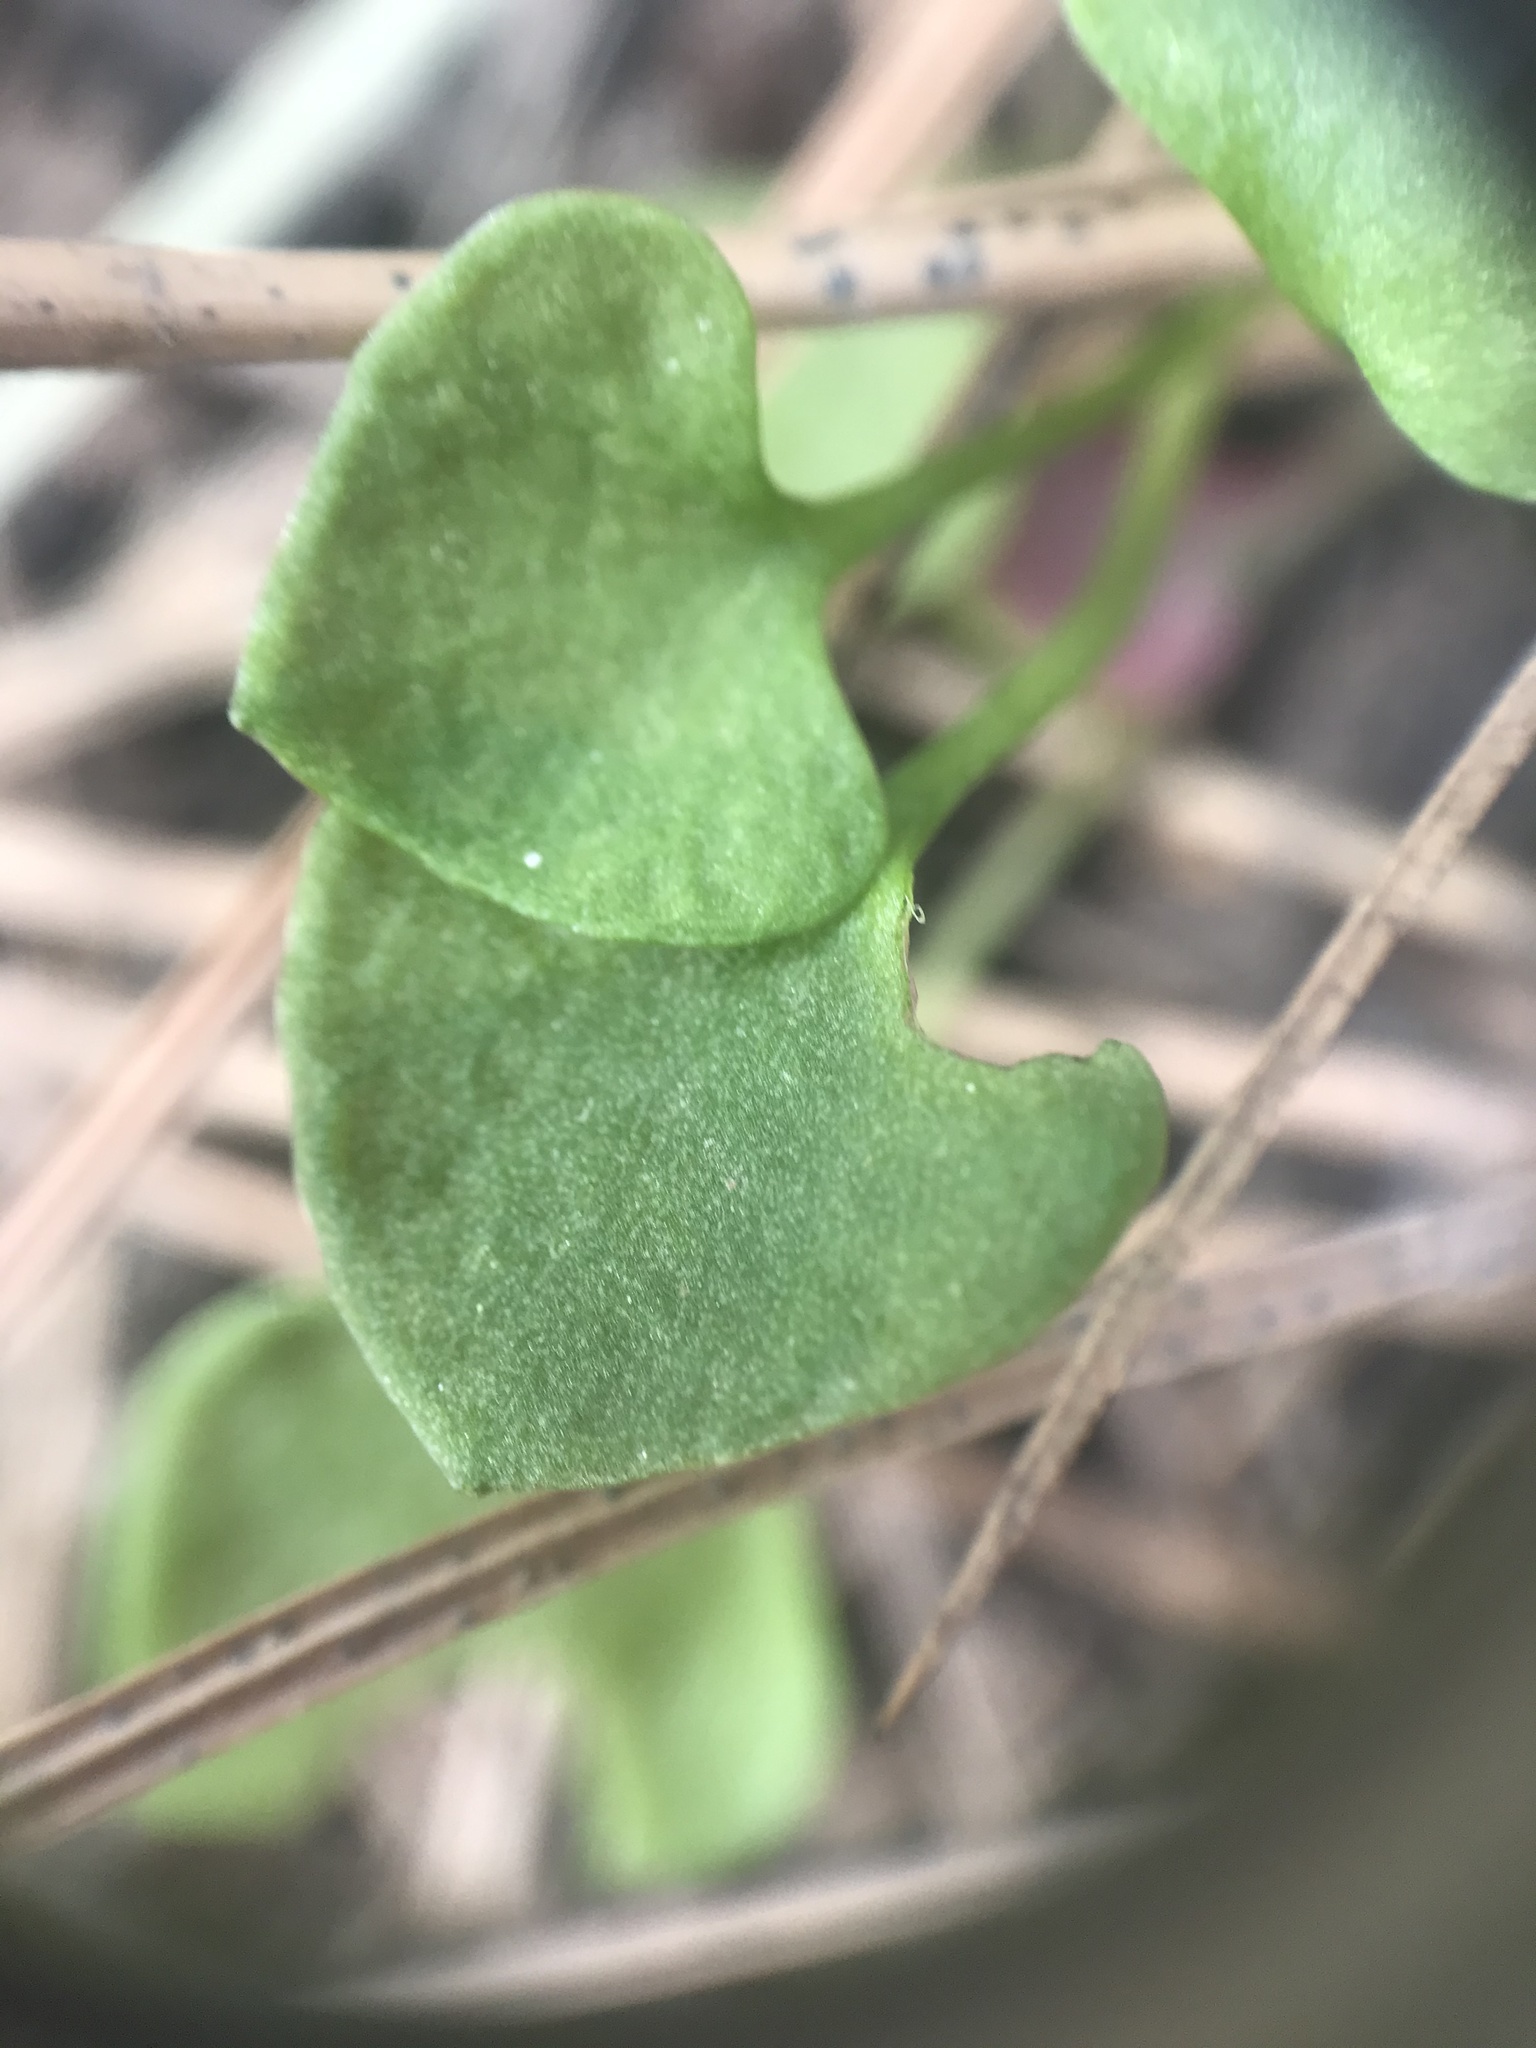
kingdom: Plantae
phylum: Tracheophyta
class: Magnoliopsida
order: Caryophyllales
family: Montiaceae
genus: Claytonia
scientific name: Claytonia perfoliata
